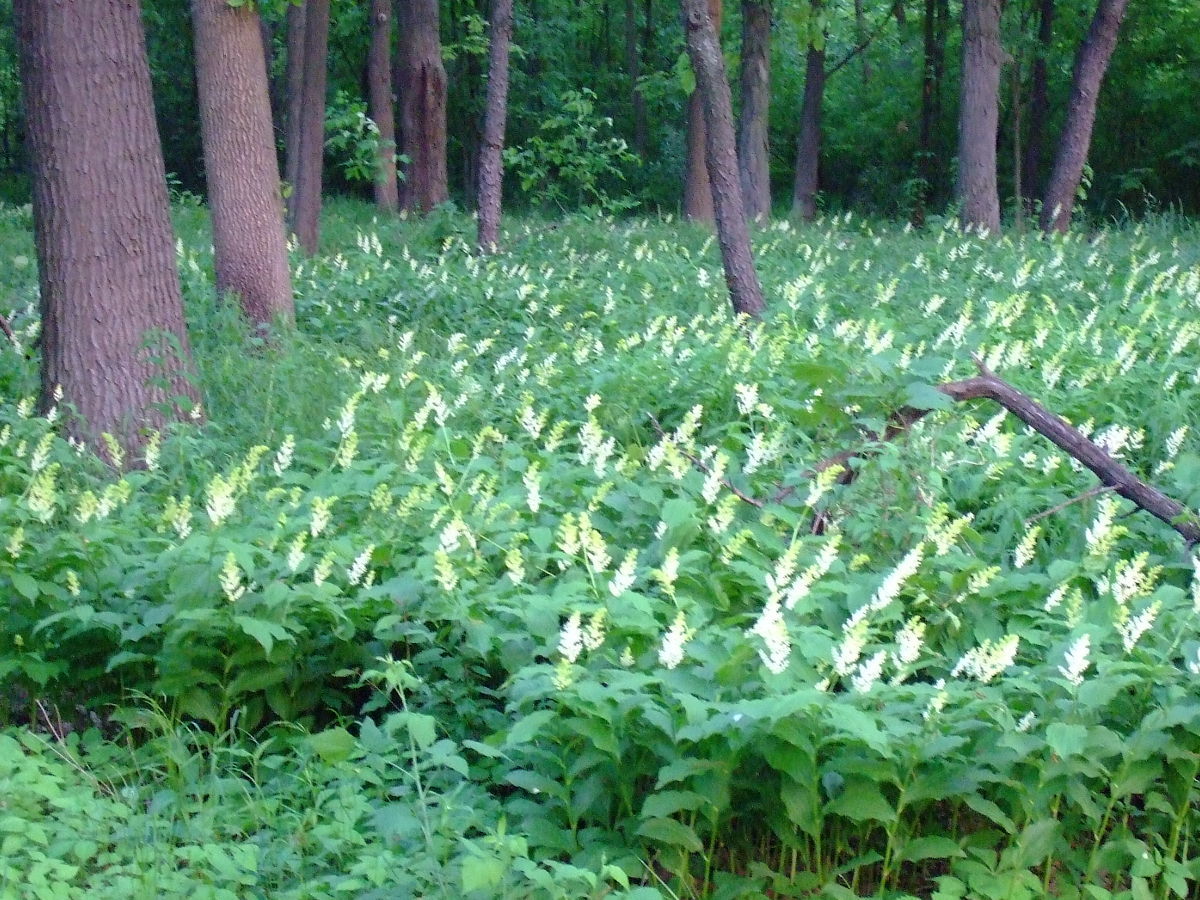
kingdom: Plantae
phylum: Tracheophyta
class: Liliopsida
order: Asparagales
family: Asparagaceae
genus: Maianthemum
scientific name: Maianthemum racemosum
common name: False spikenard
